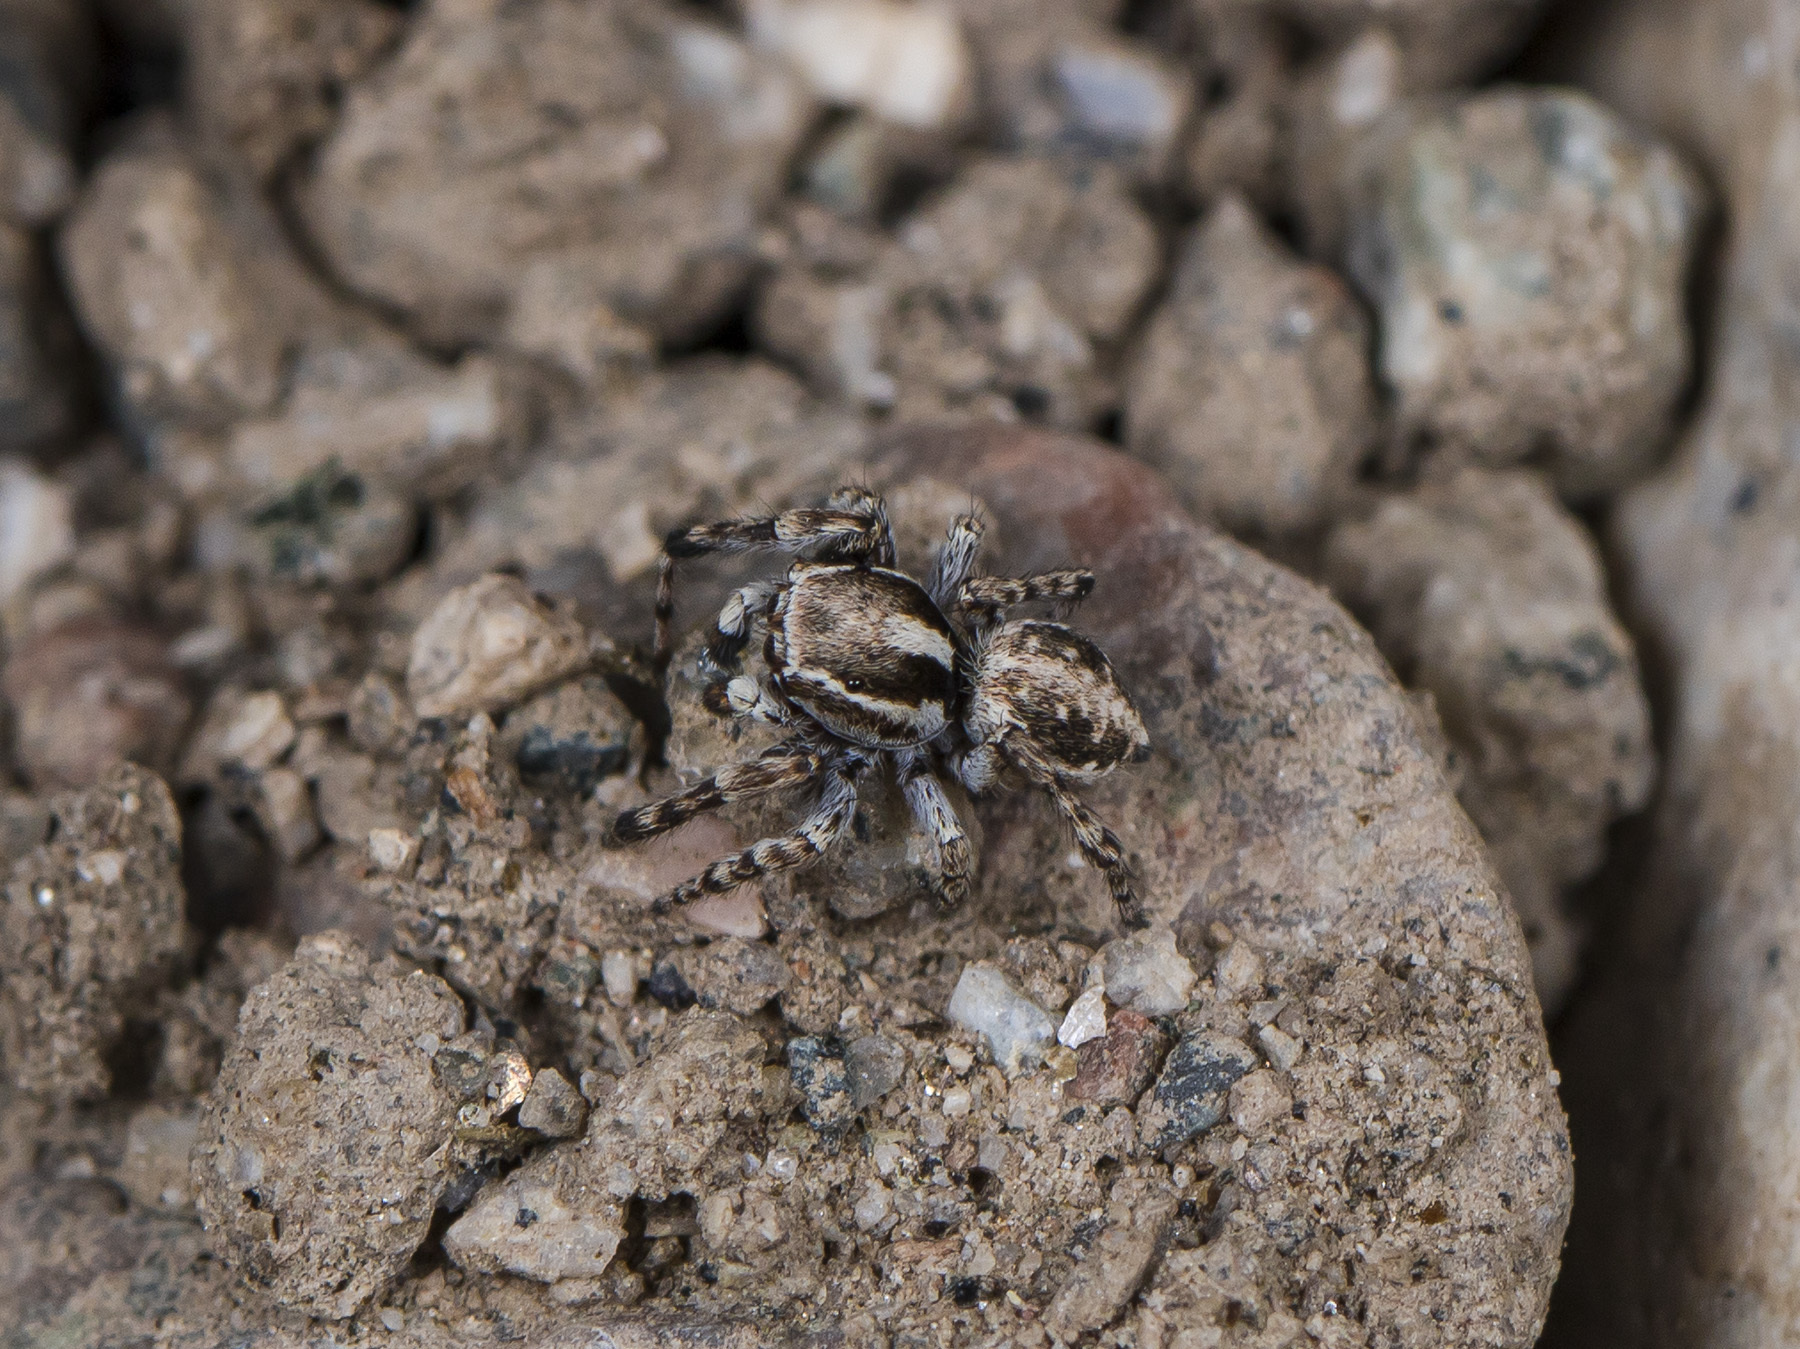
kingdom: Animalia
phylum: Arthropoda
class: Arachnida
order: Araneae
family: Salticidae
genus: Attulus
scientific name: Attulus avocator
